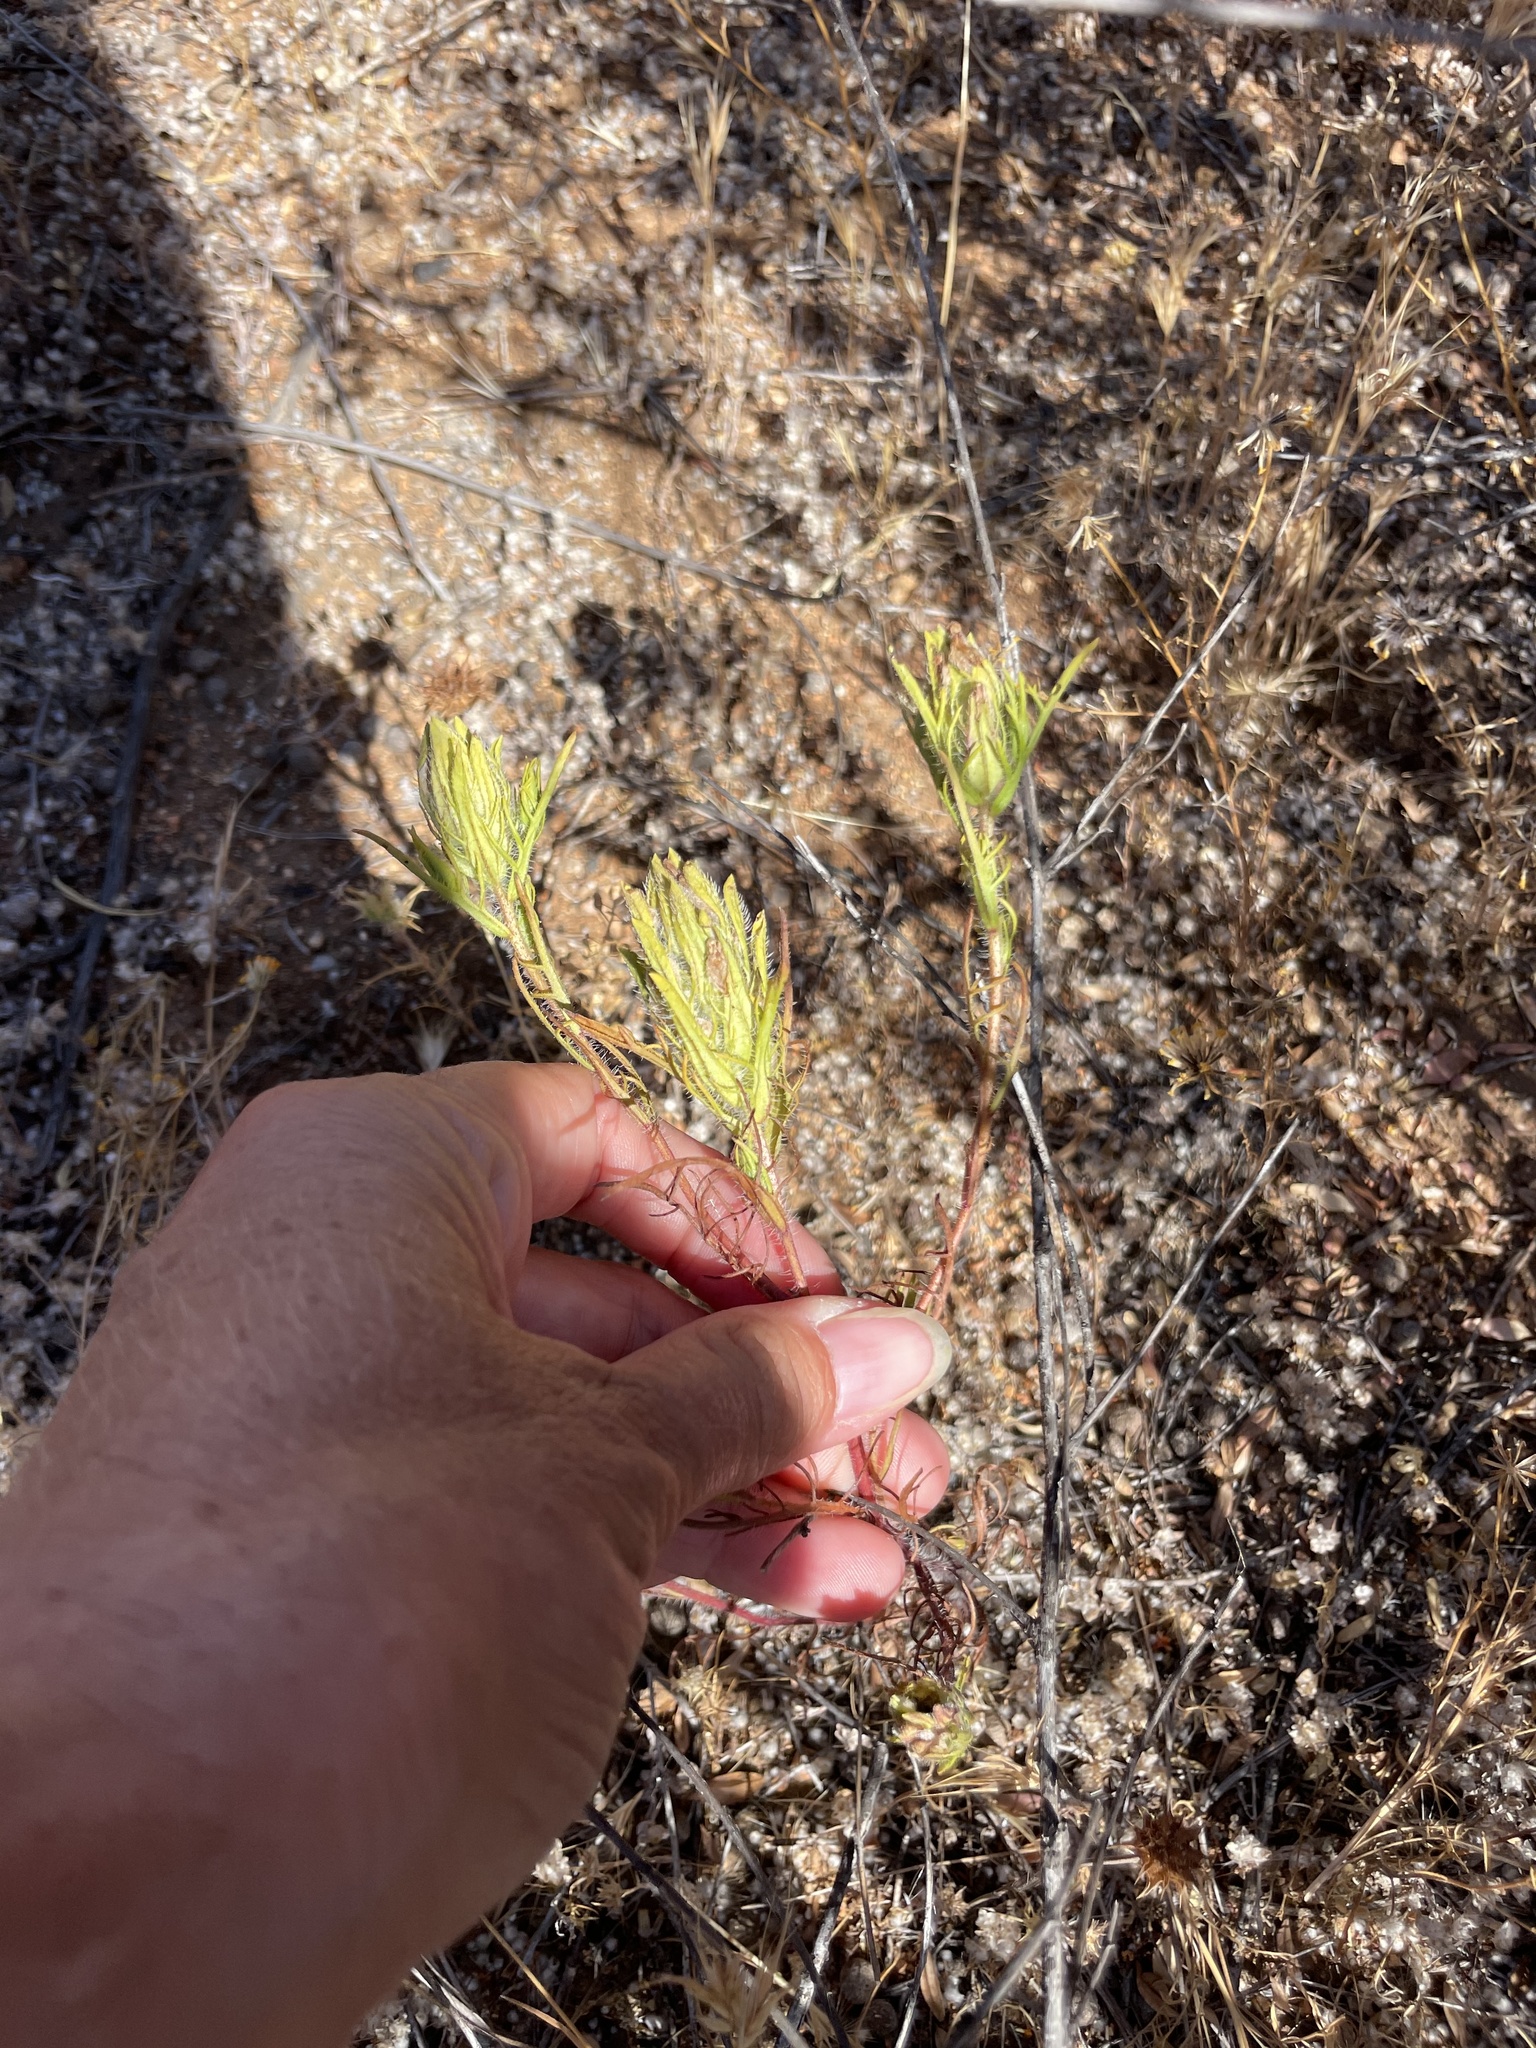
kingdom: Plantae
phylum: Tracheophyta
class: Magnoliopsida
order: Lamiales
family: Orobanchaceae
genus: Dicranostegia
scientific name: Dicranostegia orcuttiana
